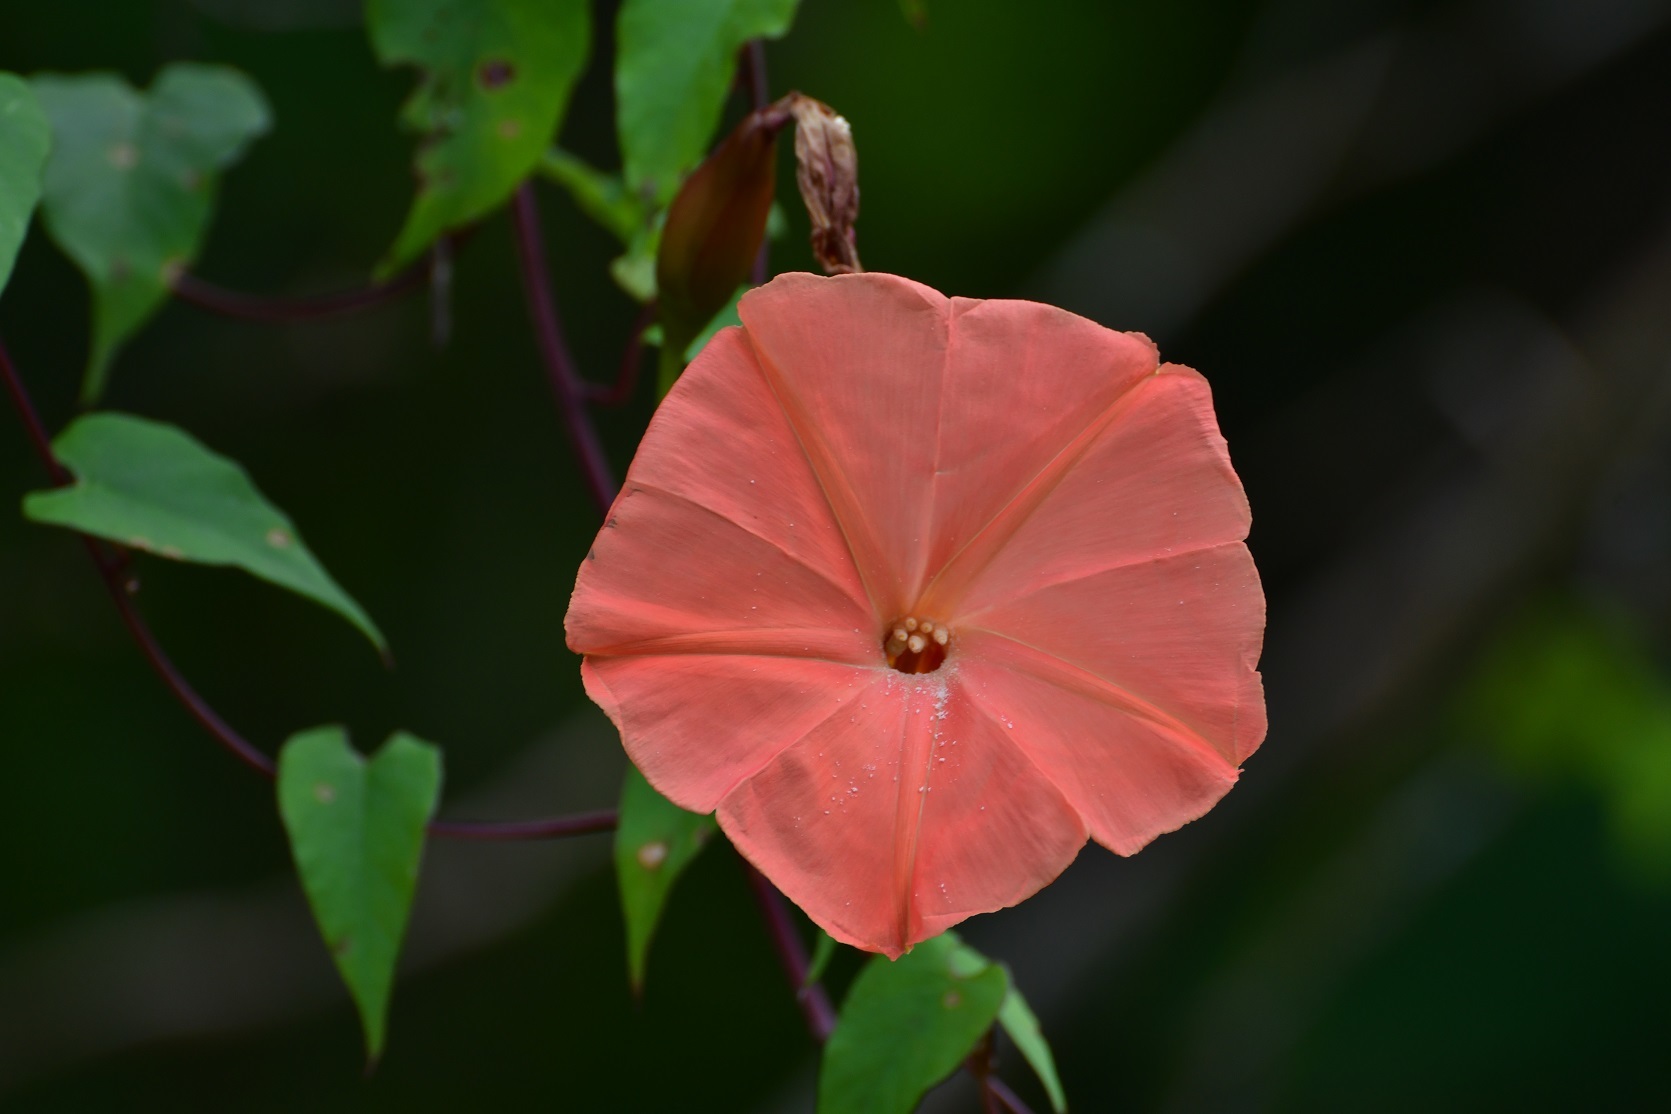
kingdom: Plantae
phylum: Tracheophyta
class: Magnoliopsida
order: Solanales
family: Convolvulaceae
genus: Operculina
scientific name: Operculina pteripes
